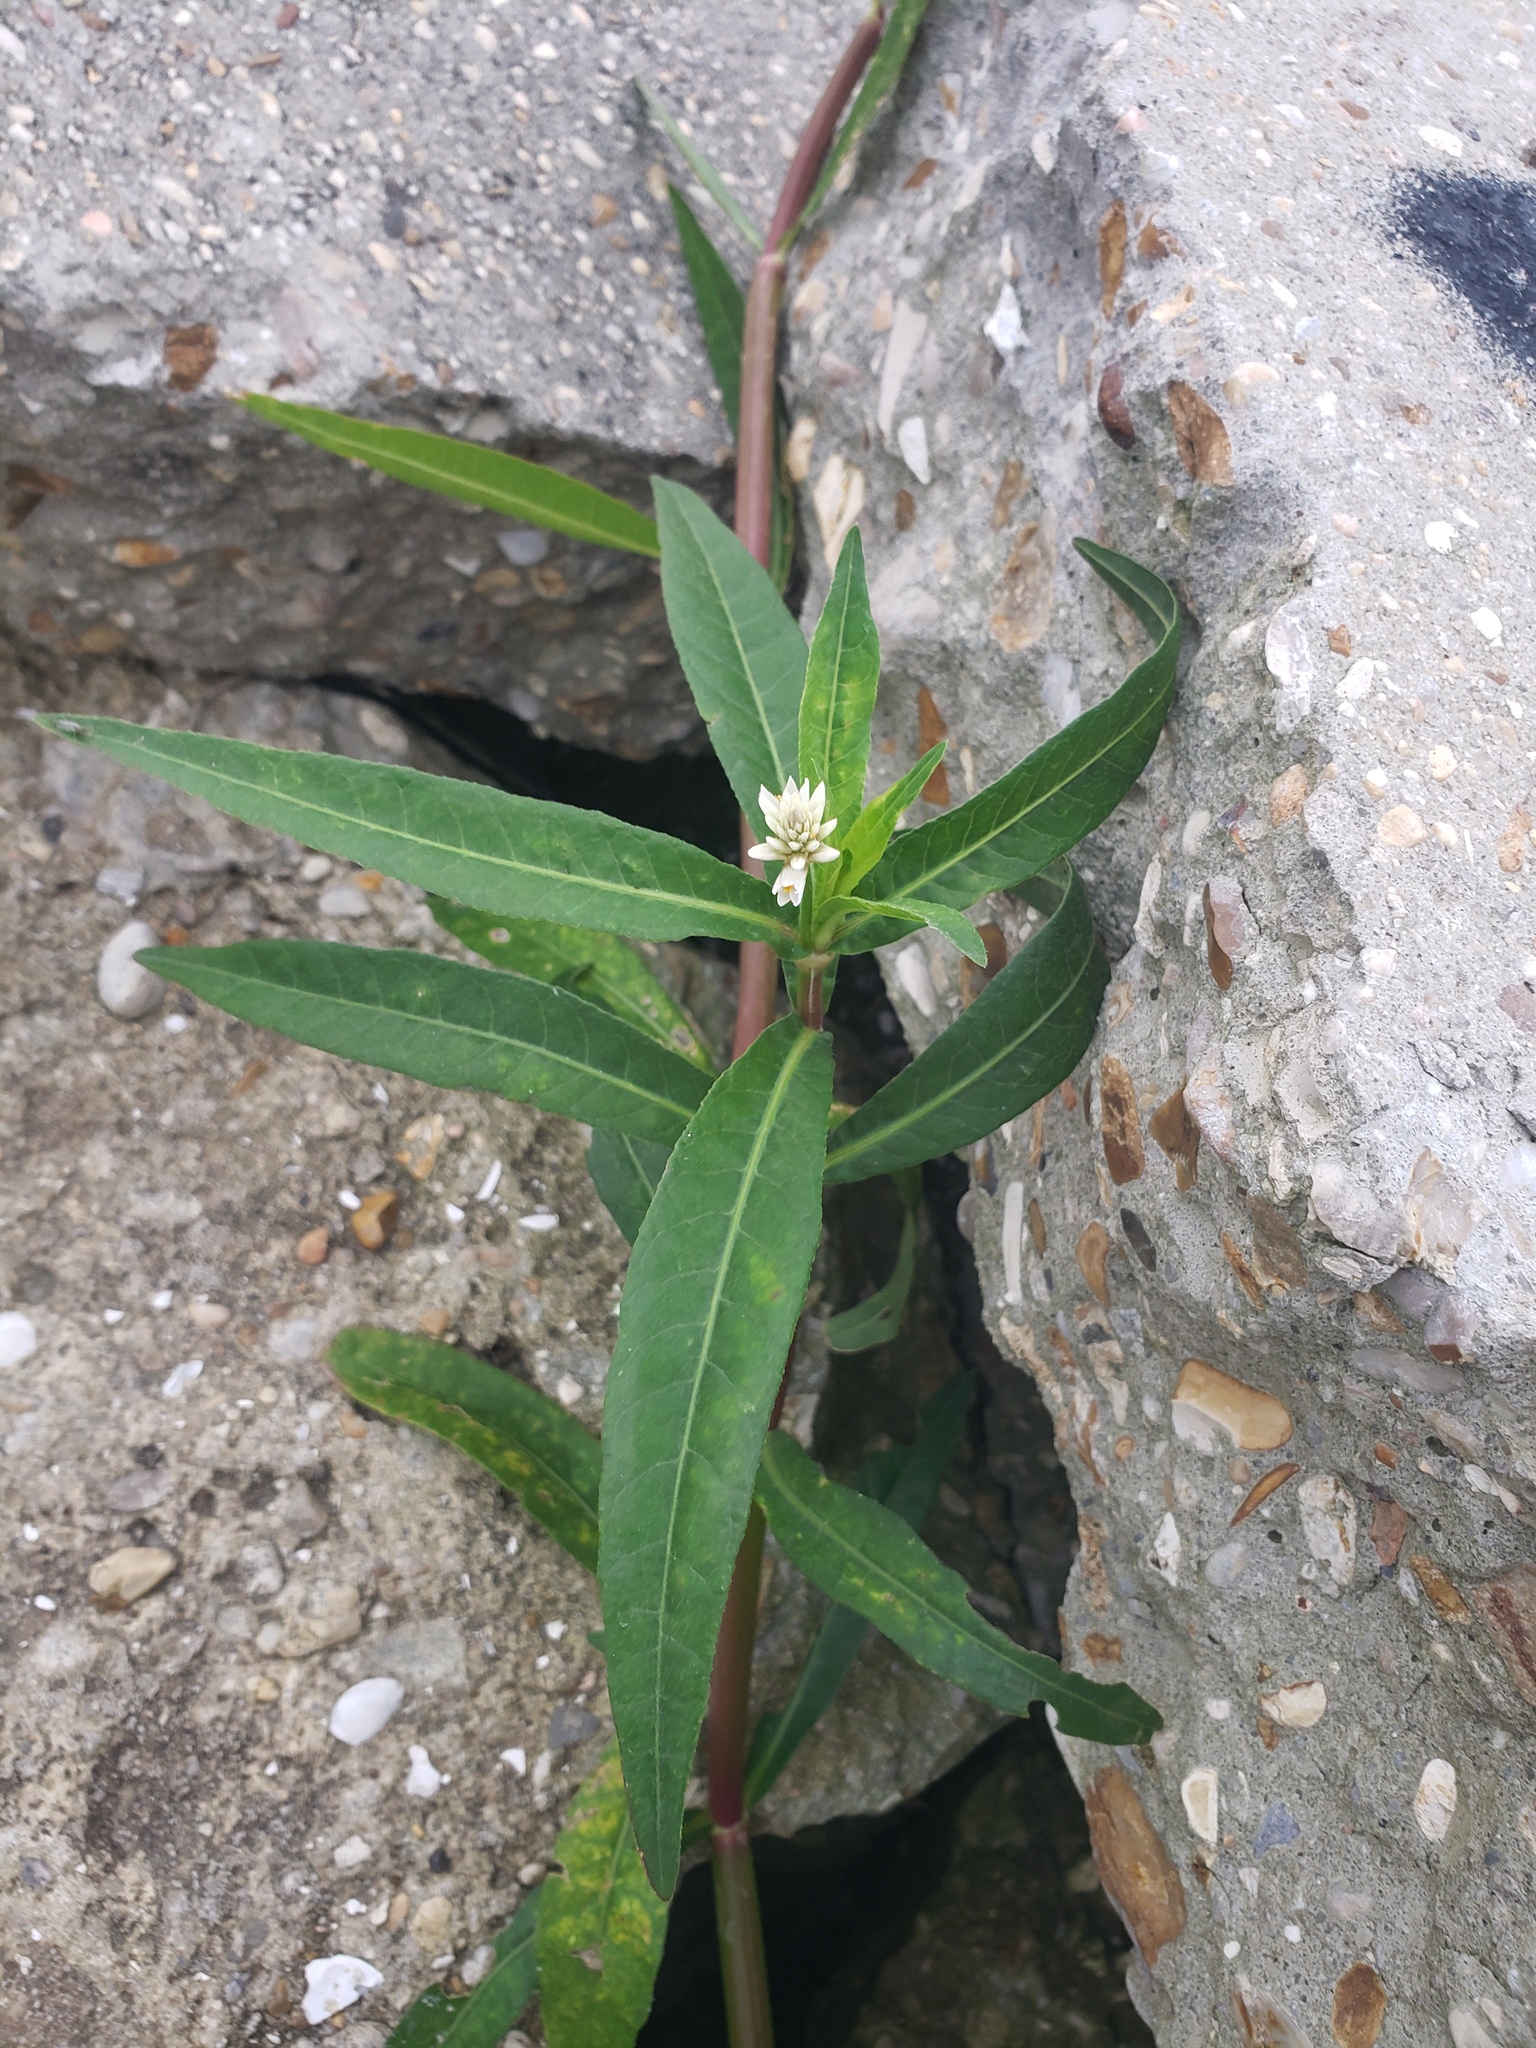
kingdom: Plantae
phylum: Tracheophyta
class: Magnoliopsida
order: Caryophyllales
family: Amaranthaceae
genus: Alternanthera
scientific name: Alternanthera philoxeroides
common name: Alligatorweed
